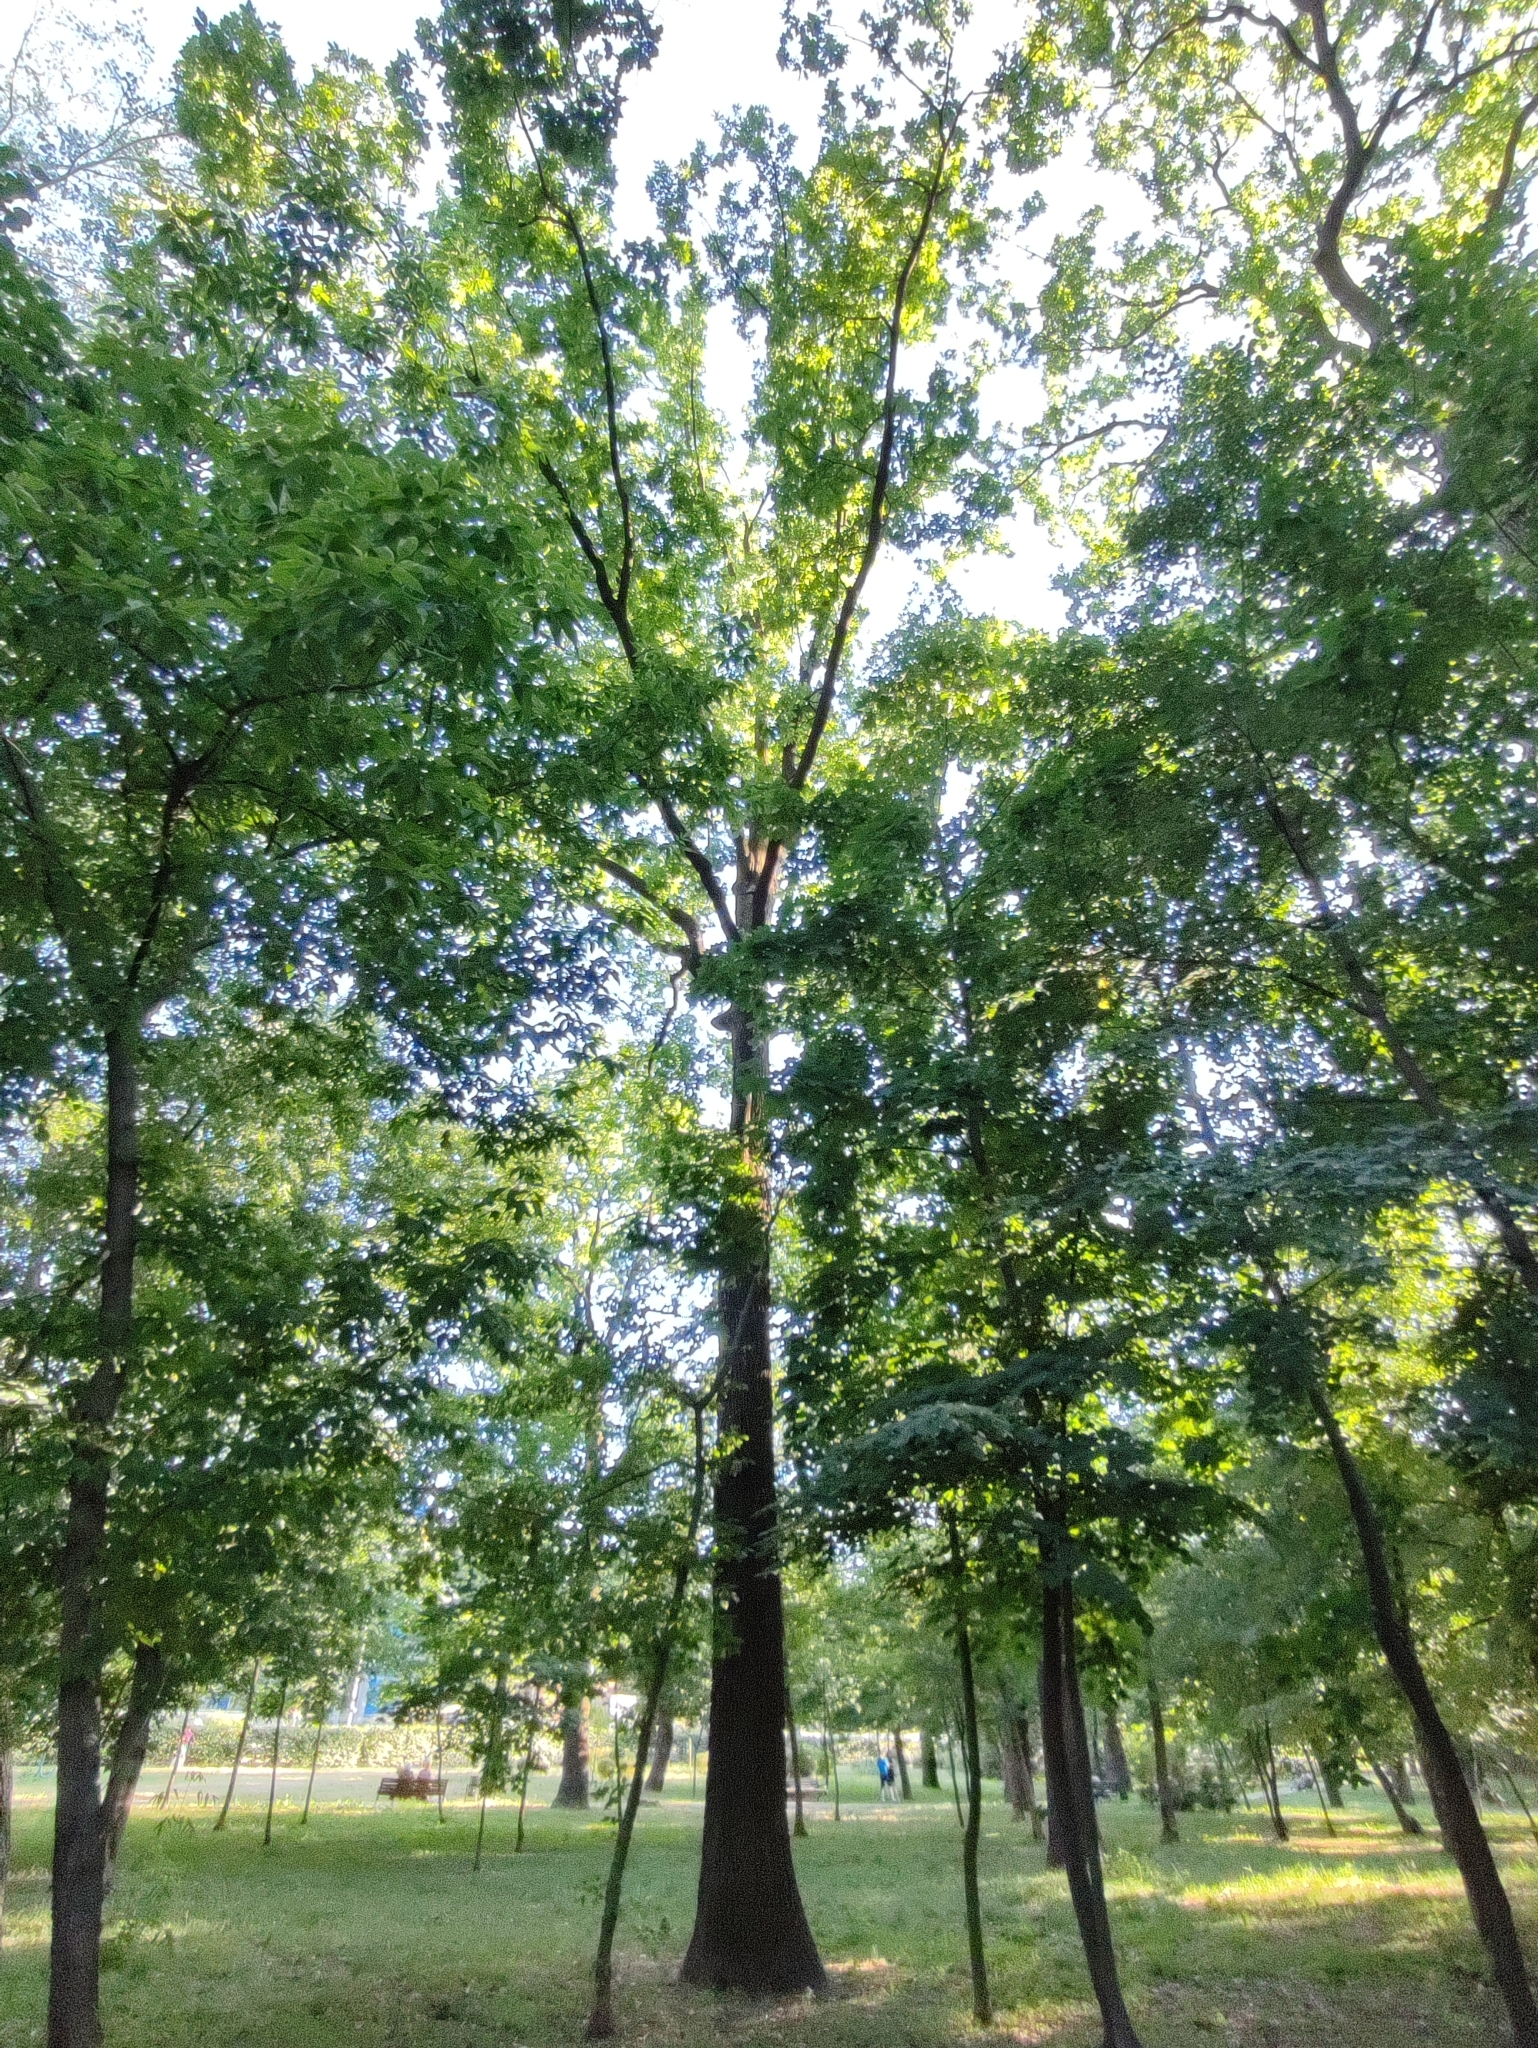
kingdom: Plantae
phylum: Tracheophyta
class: Magnoliopsida
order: Fagales
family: Fagaceae
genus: Quercus
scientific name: Quercus robur
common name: Pedunculate oak
